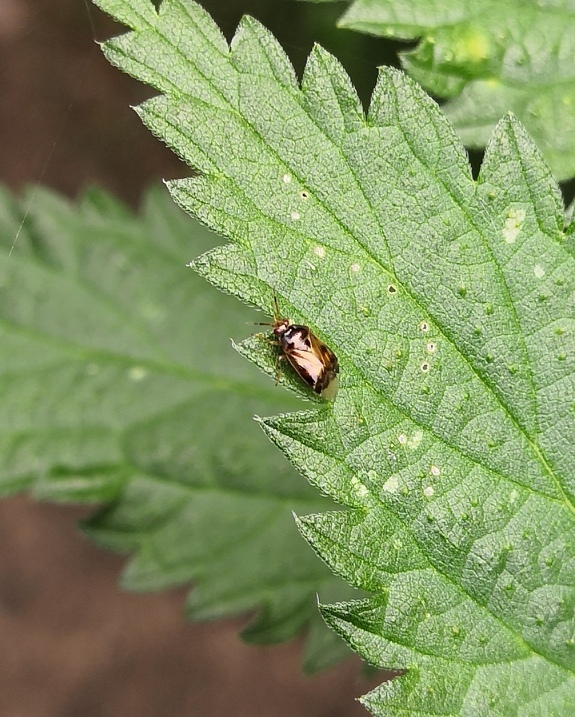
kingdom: Animalia
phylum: Arthropoda
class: Insecta
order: Hemiptera
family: Miridae
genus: Deraeocoris
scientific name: Deraeocoris lutescens
